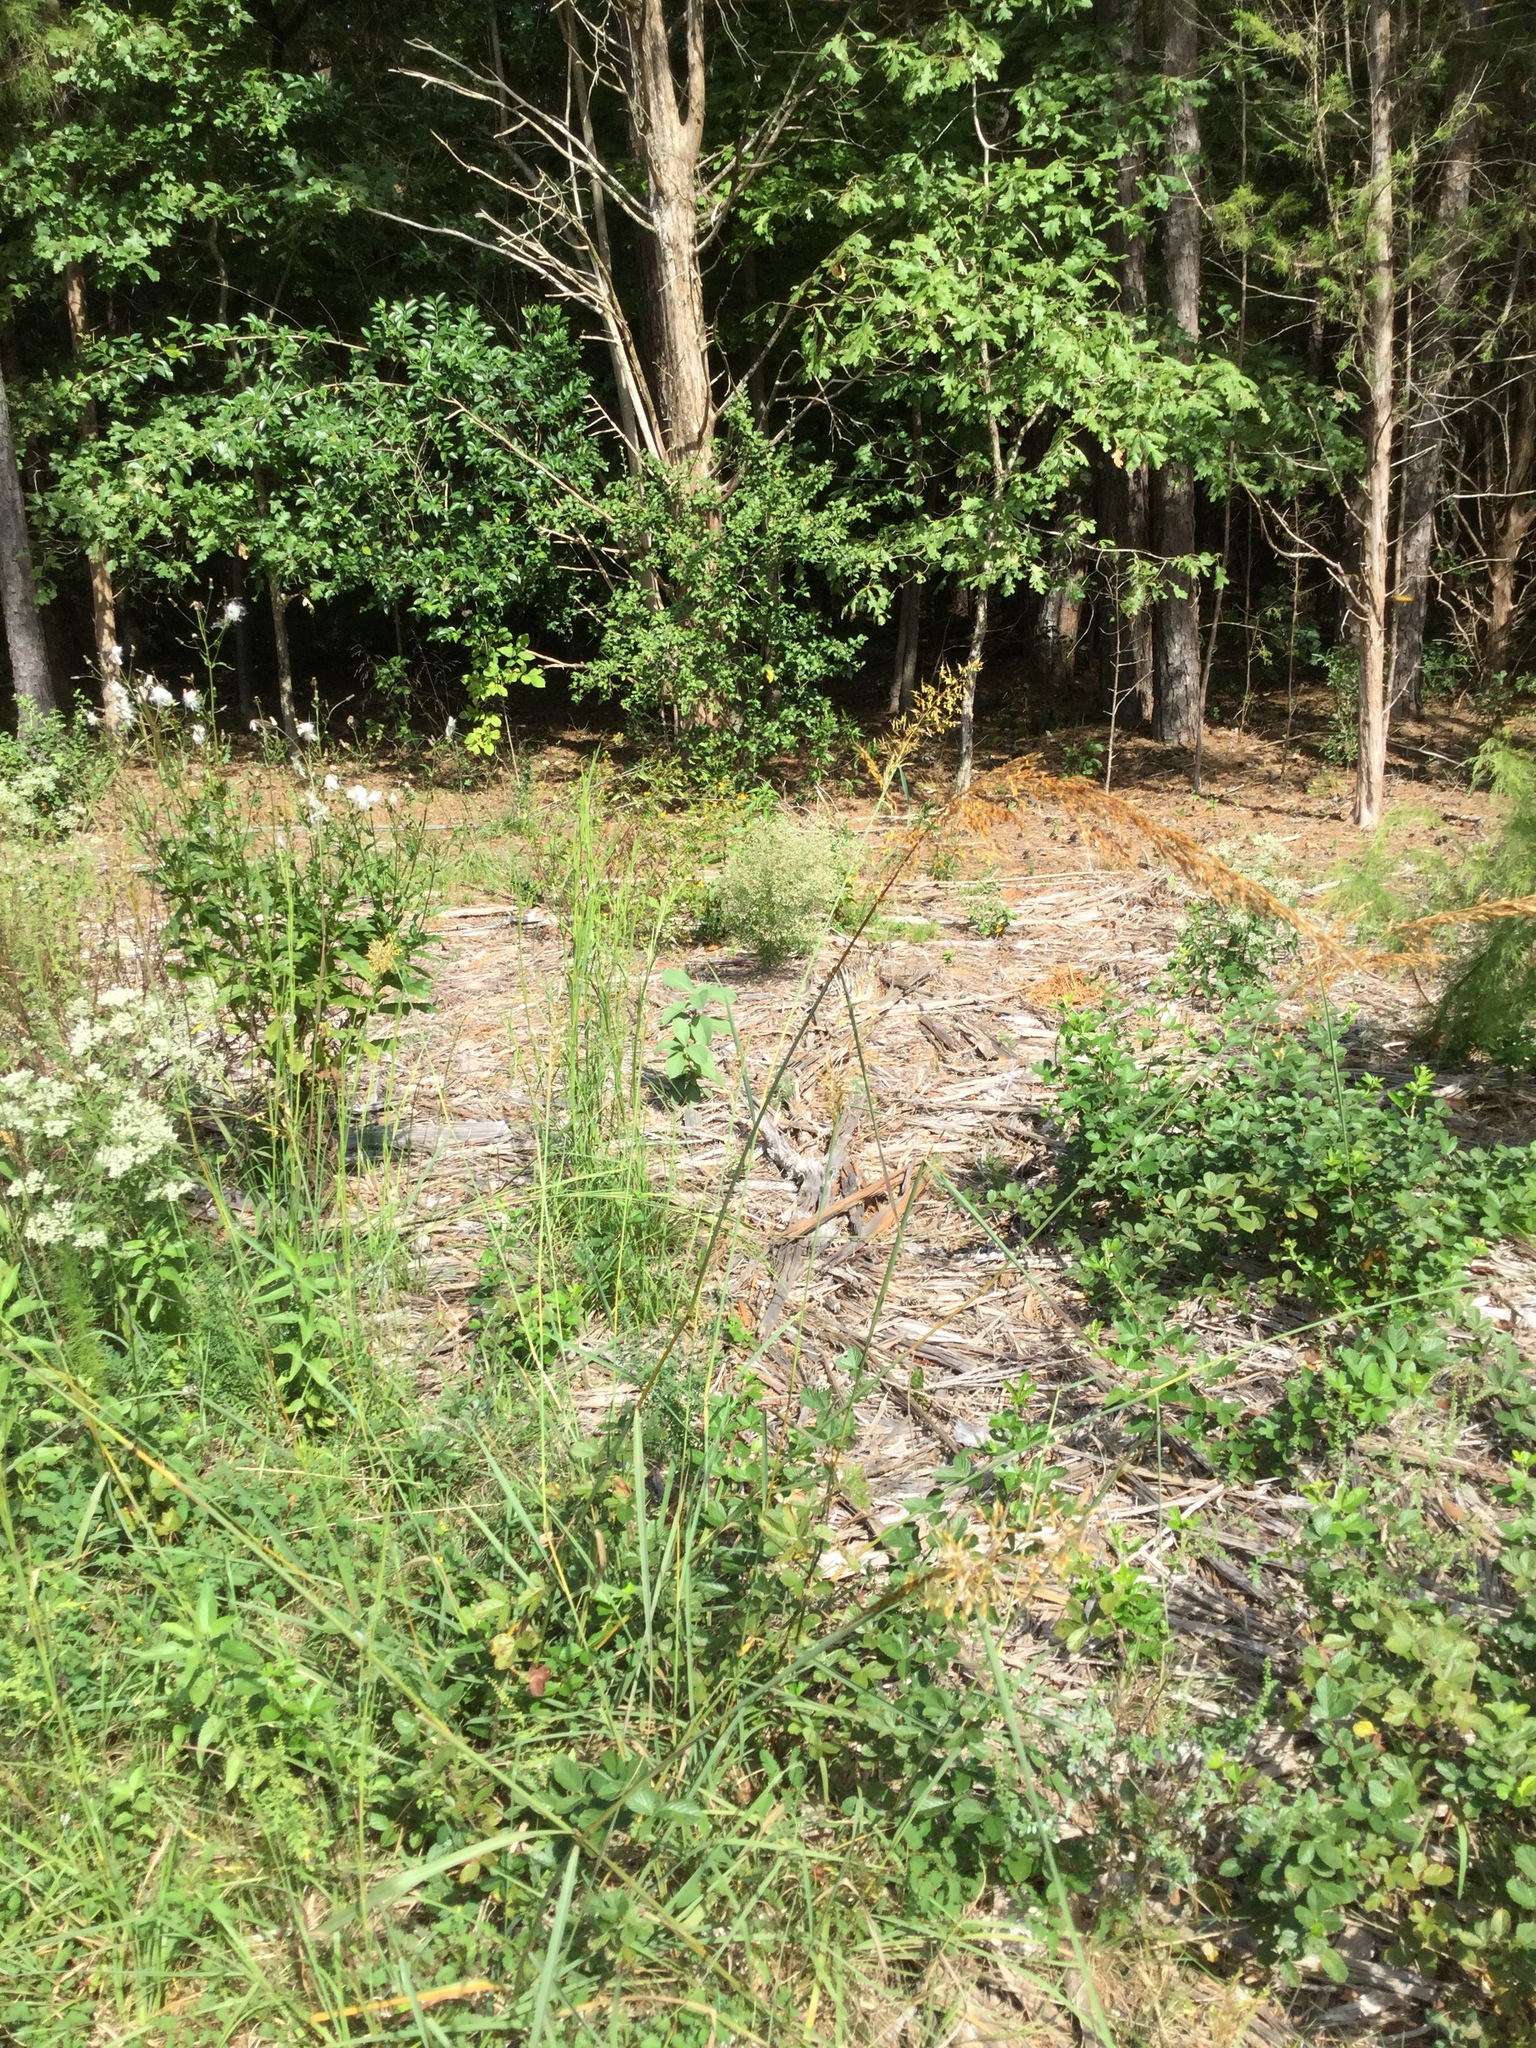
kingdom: Plantae
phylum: Tracheophyta
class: Liliopsida
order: Poales
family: Poaceae
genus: Sorghastrum
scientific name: Sorghastrum nutans
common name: Indian grass
